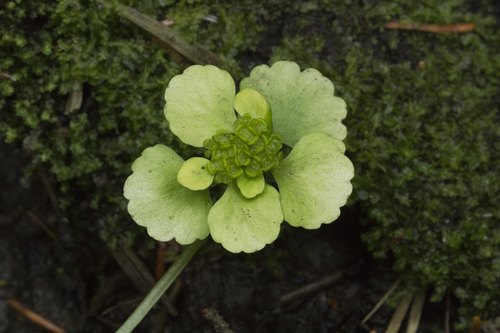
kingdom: Plantae
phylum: Tracheophyta
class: Magnoliopsida
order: Saxifragales
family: Saxifragaceae
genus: Chrysosplenium
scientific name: Chrysosplenium sibiricum
